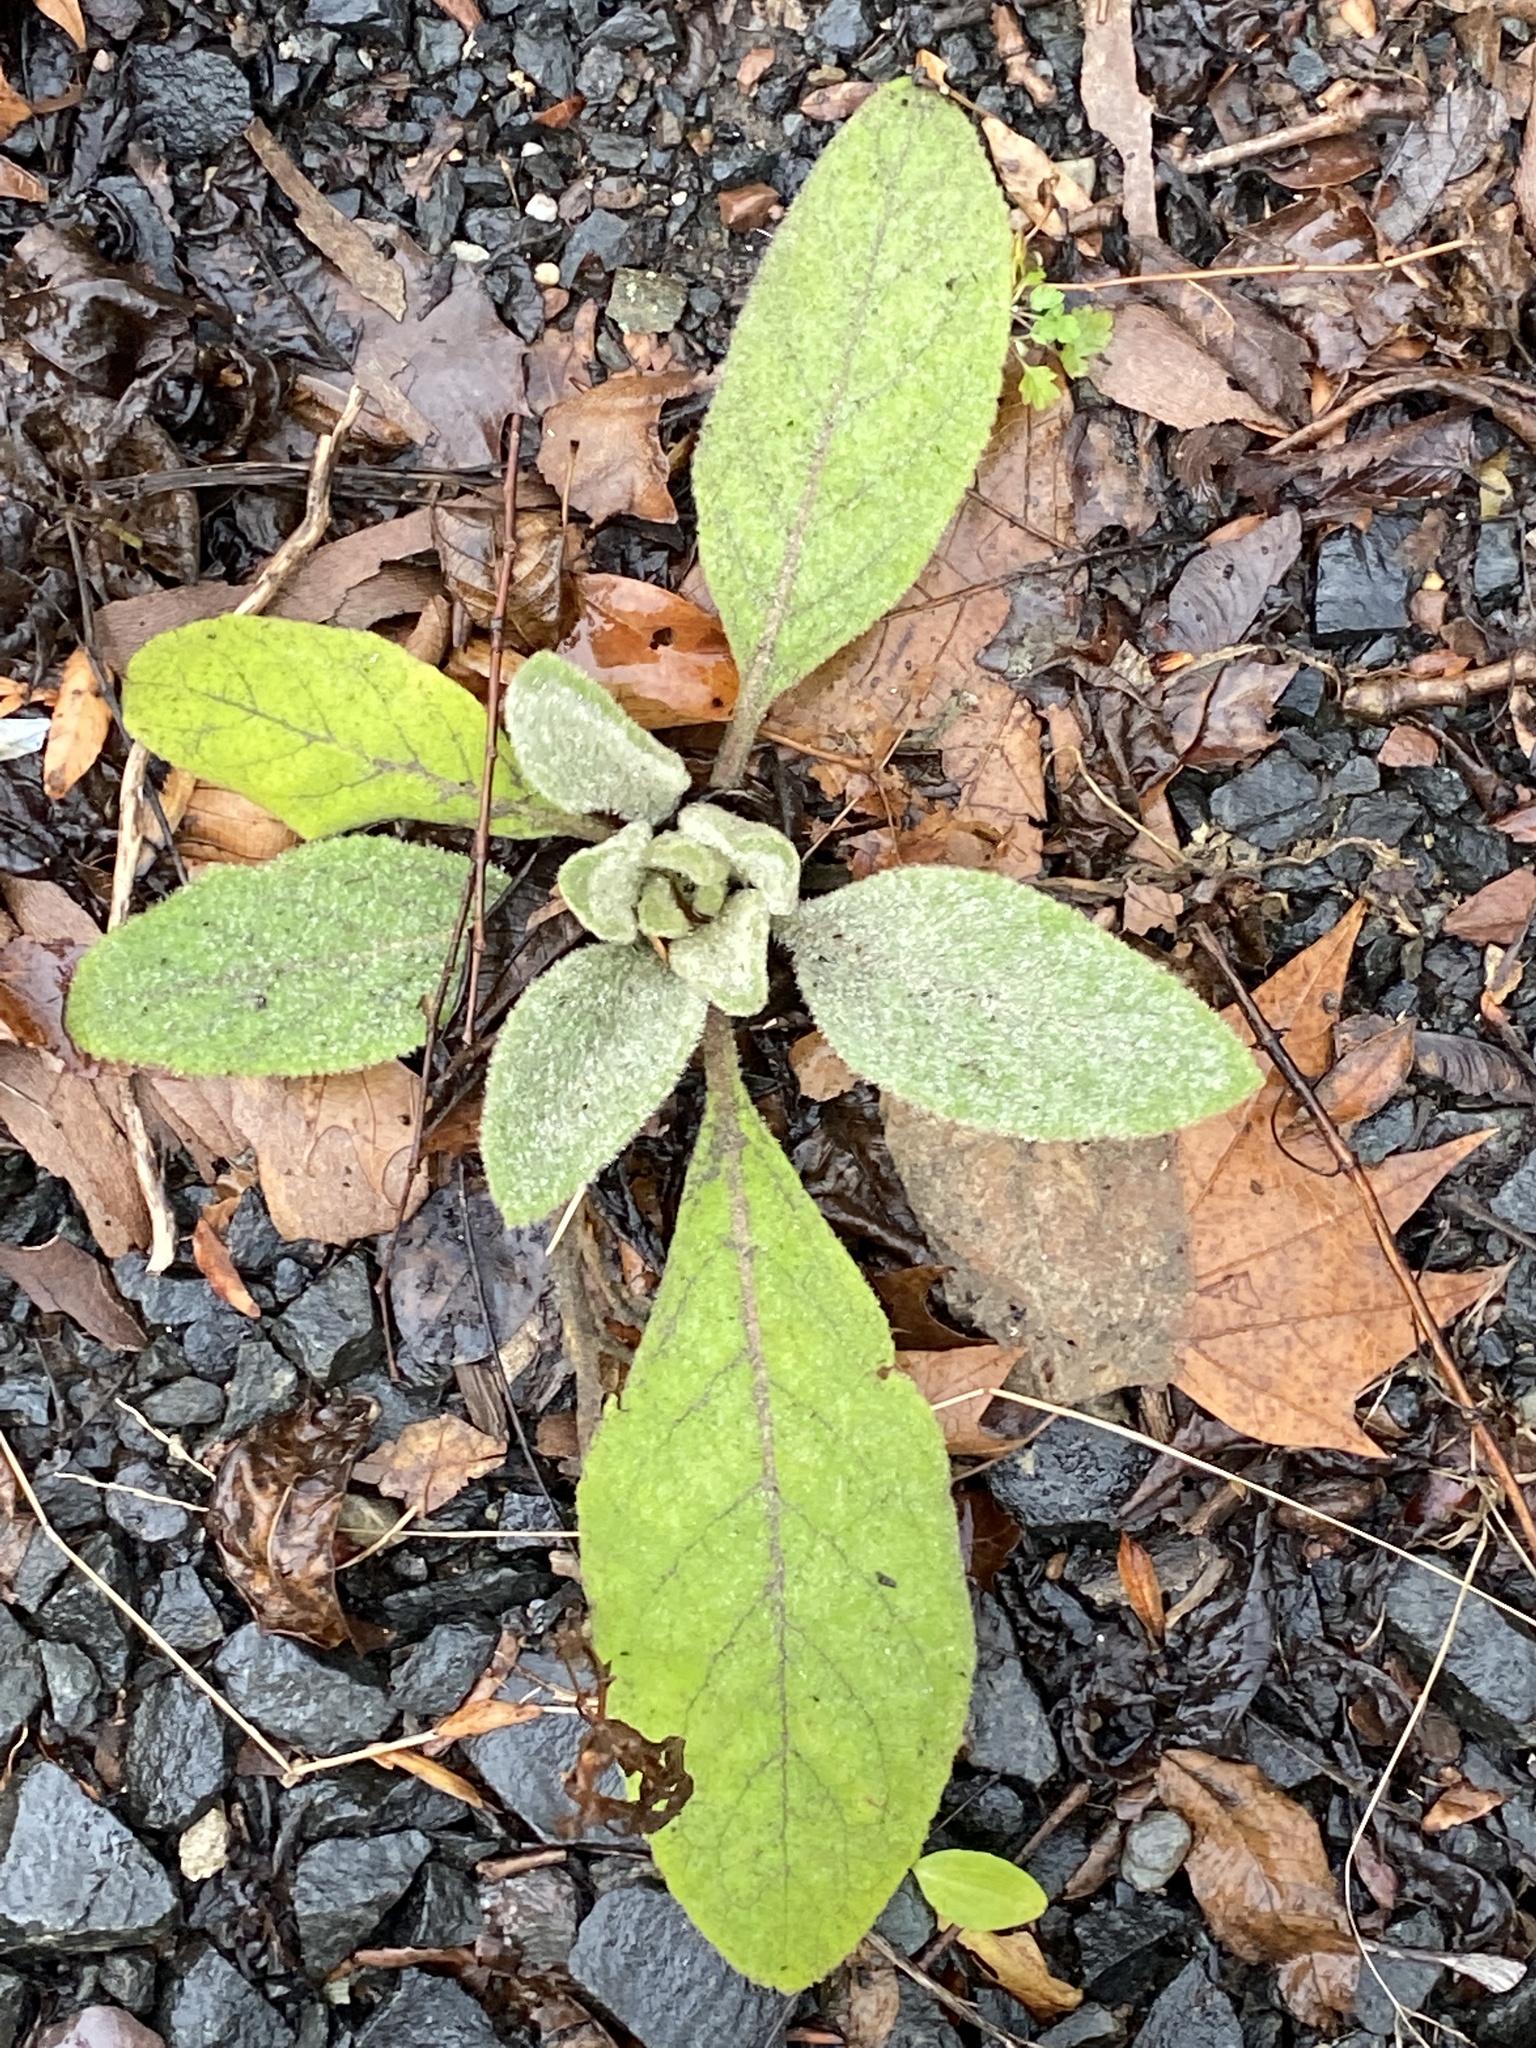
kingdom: Plantae
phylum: Tracheophyta
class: Magnoliopsida
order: Lamiales
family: Scrophulariaceae
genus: Verbascum
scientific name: Verbascum thapsus
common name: Common mullein
